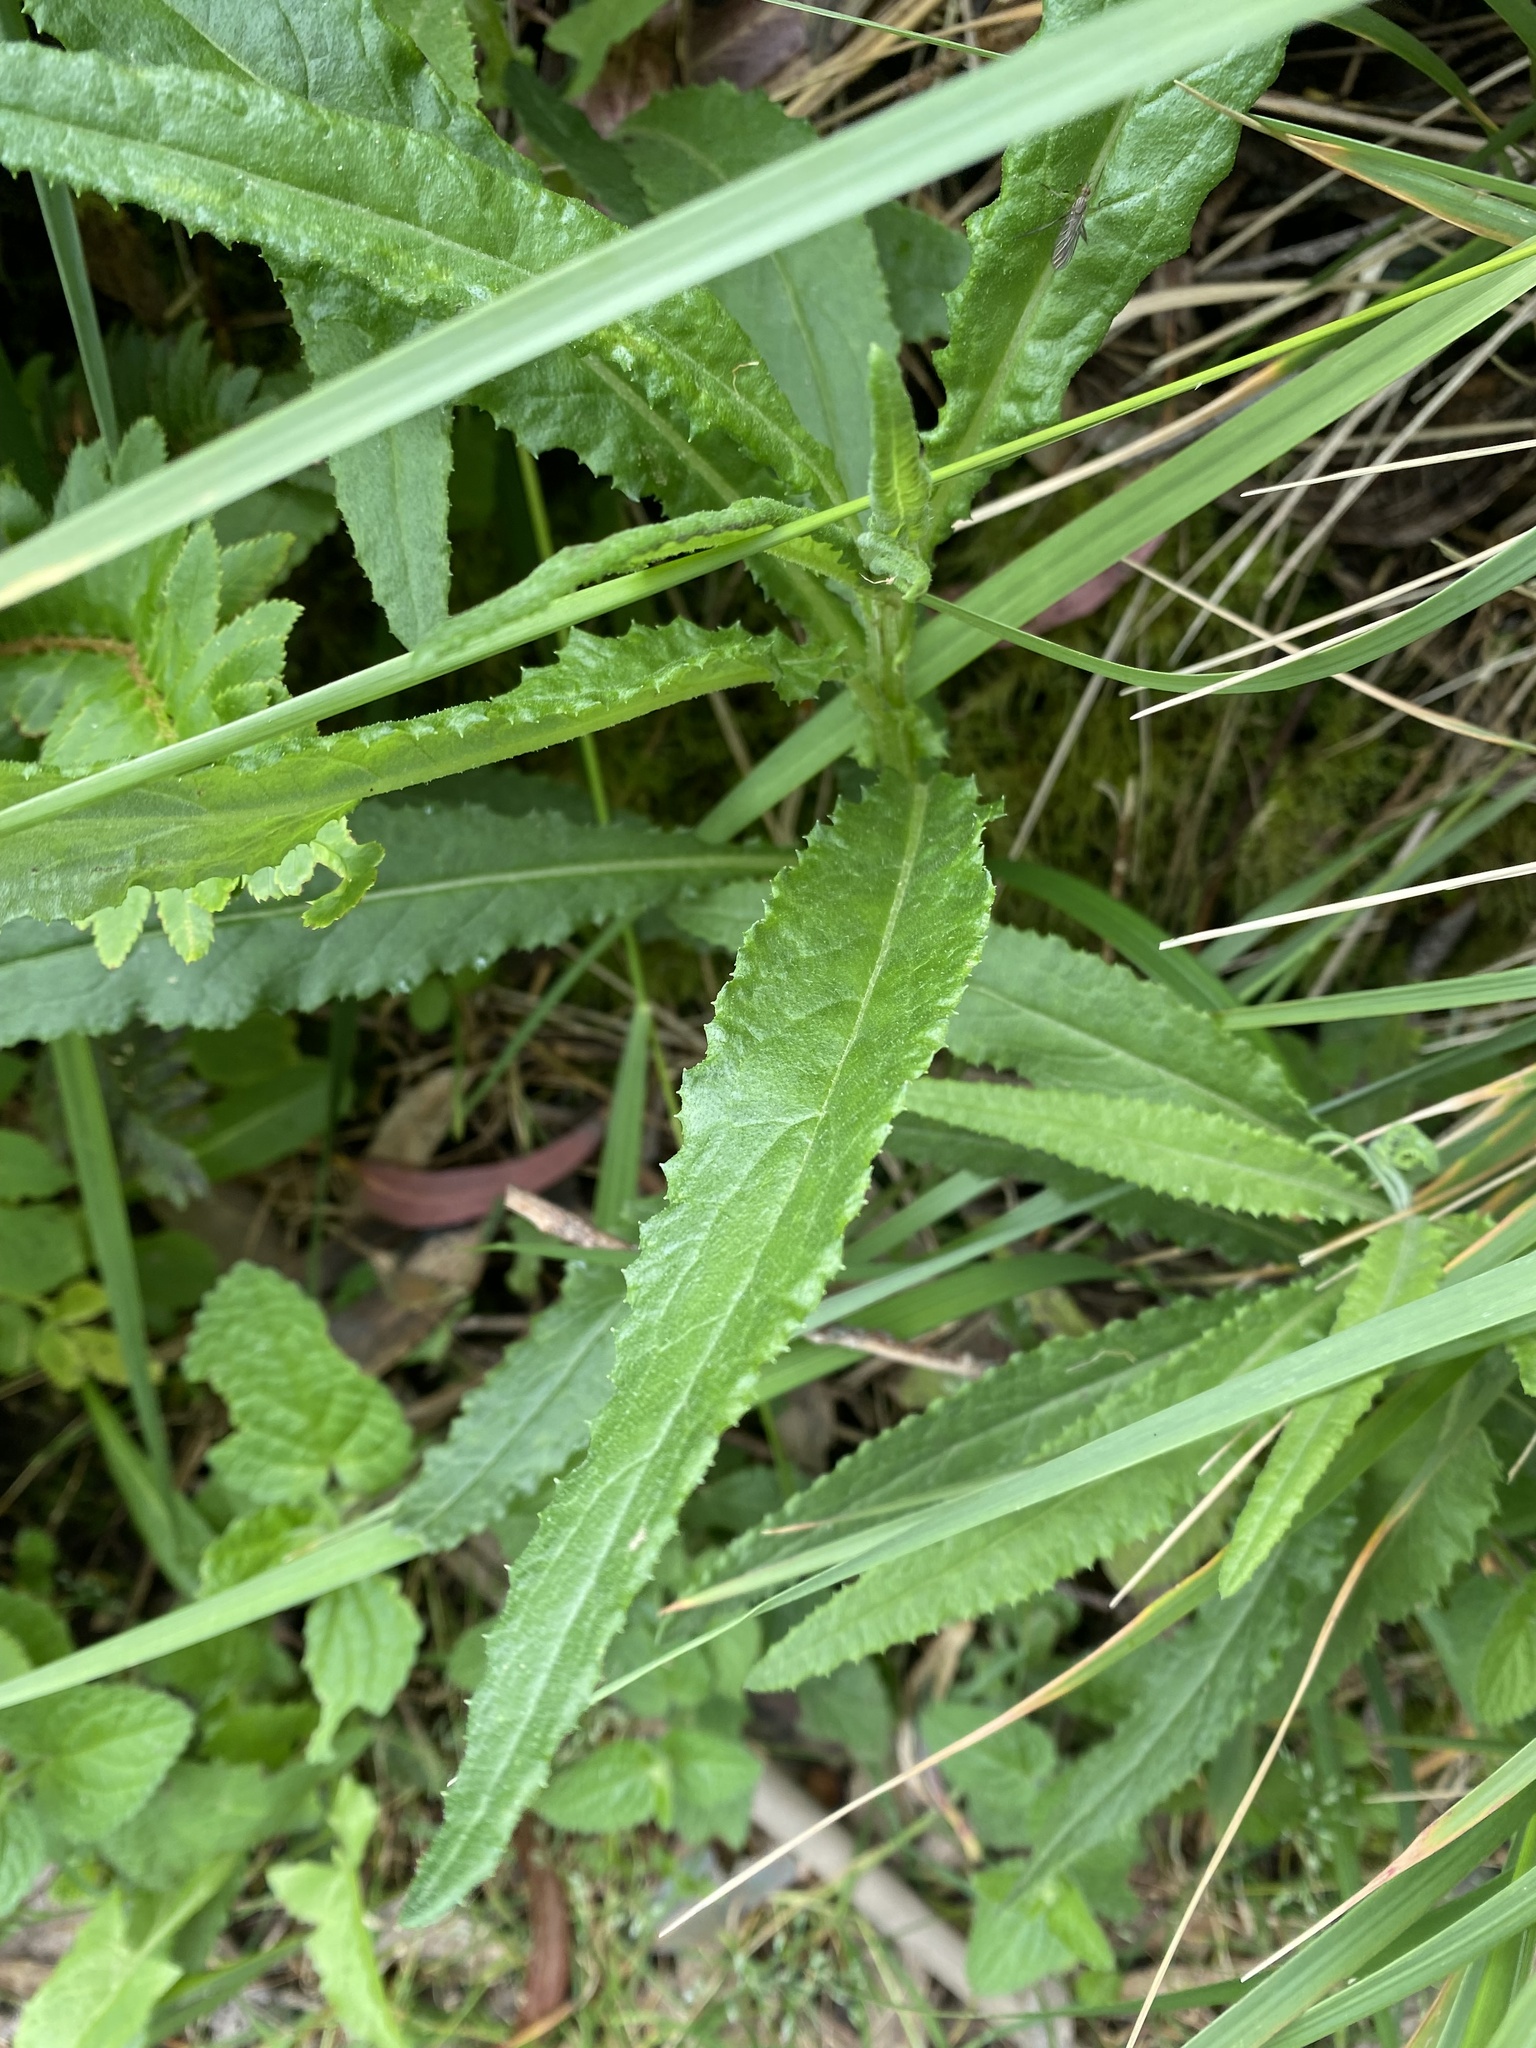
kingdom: Plantae
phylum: Tracheophyta
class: Magnoliopsida
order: Asterales
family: Asteraceae
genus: Senecio
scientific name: Senecio minimus
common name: Toothed fireweed
